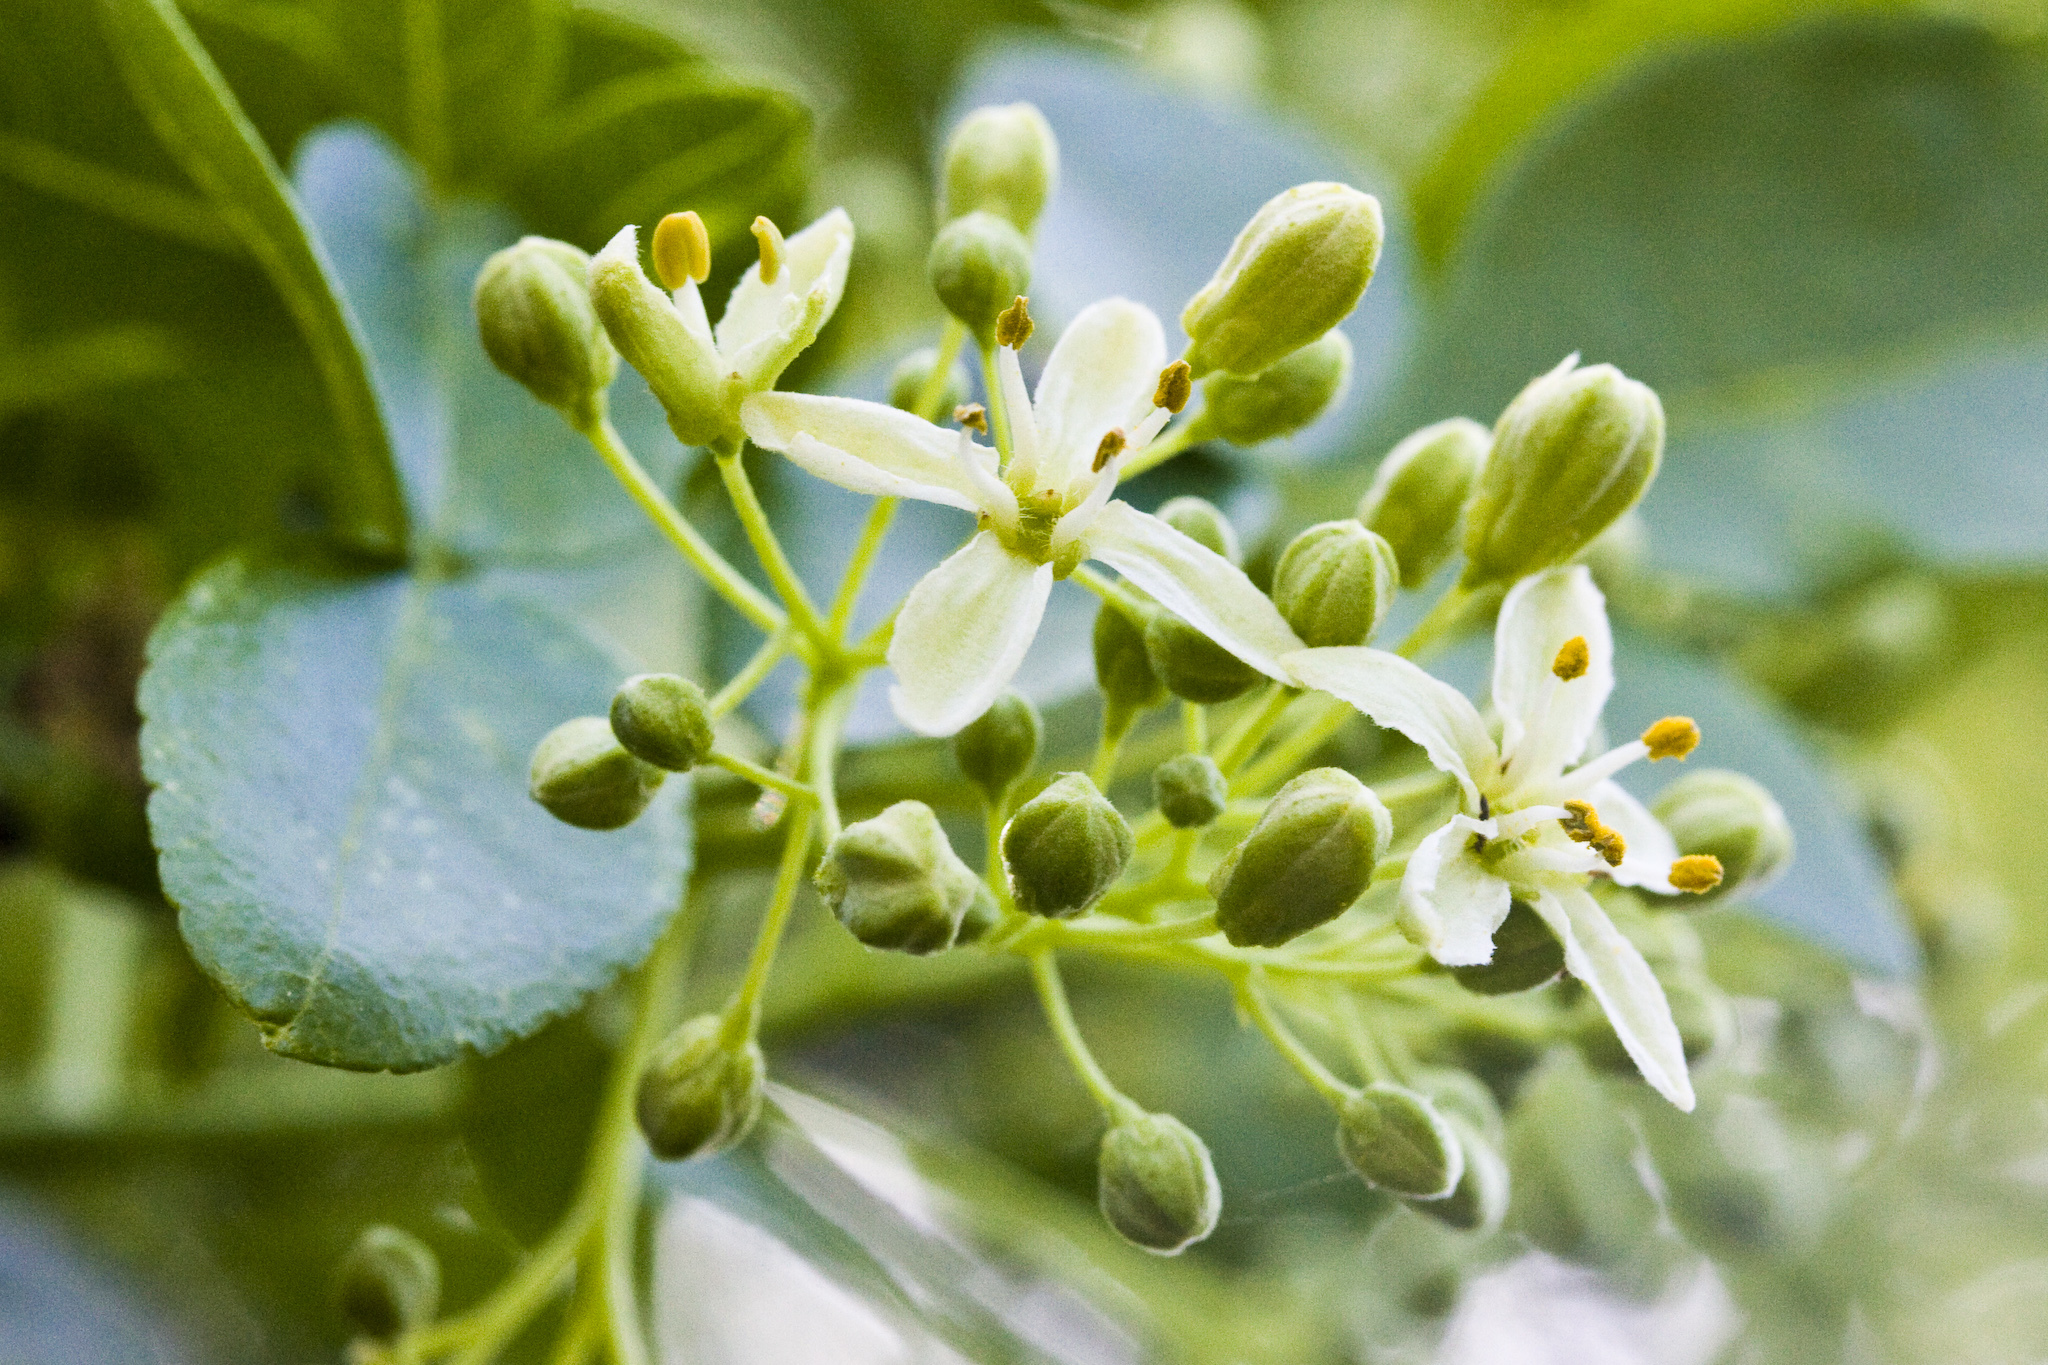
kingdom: Plantae
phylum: Tracheophyta
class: Magnoliopsida
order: Sapindales
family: Rutaceae
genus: Ptelea
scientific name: Ptelea crenulata
